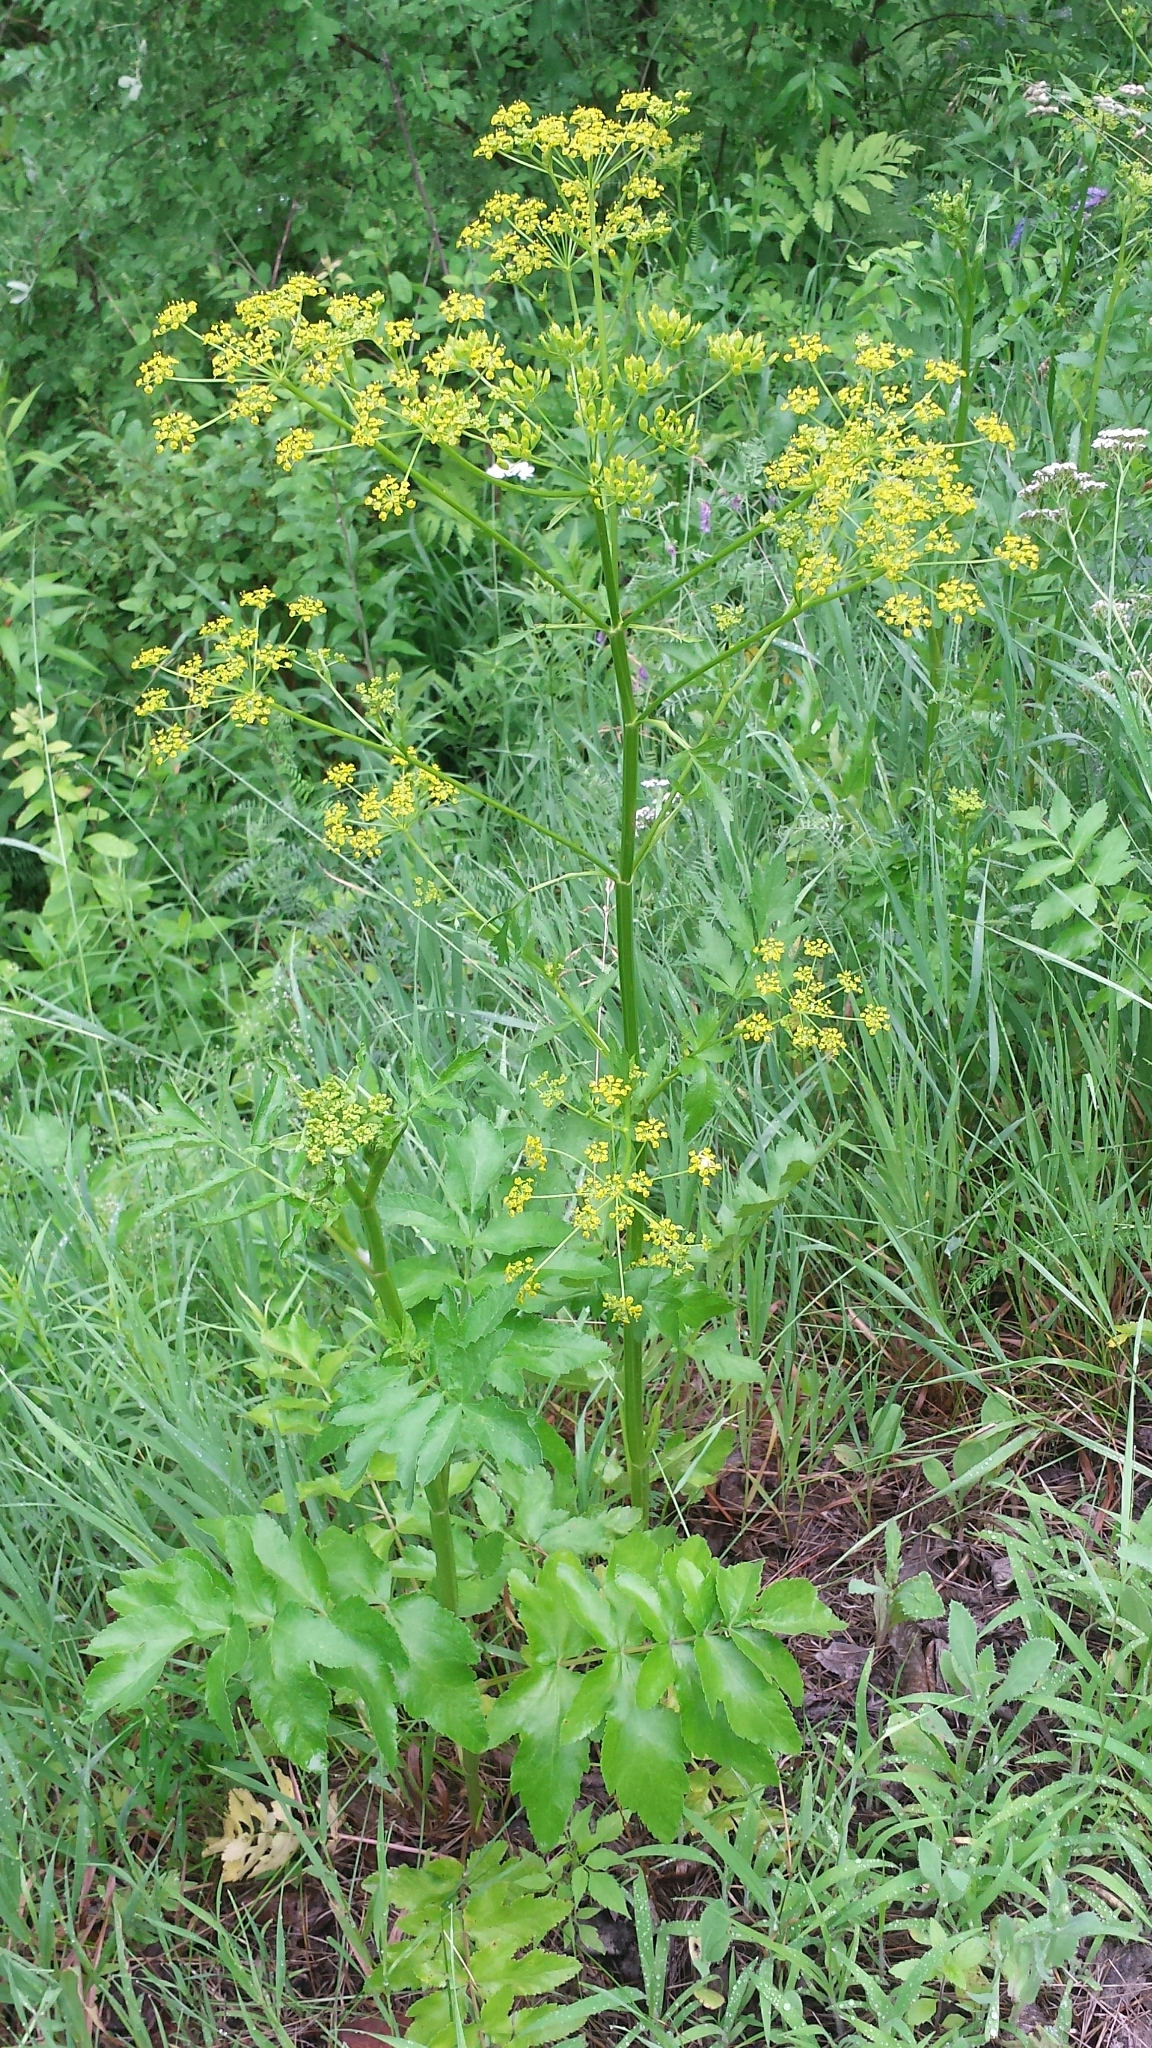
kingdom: Plantae
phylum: Tracheophyta
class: Magnoliopsida
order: Apiales
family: Apiaceae
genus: Pastinaca
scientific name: Pastinaca sativa
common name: Wild parsnip
